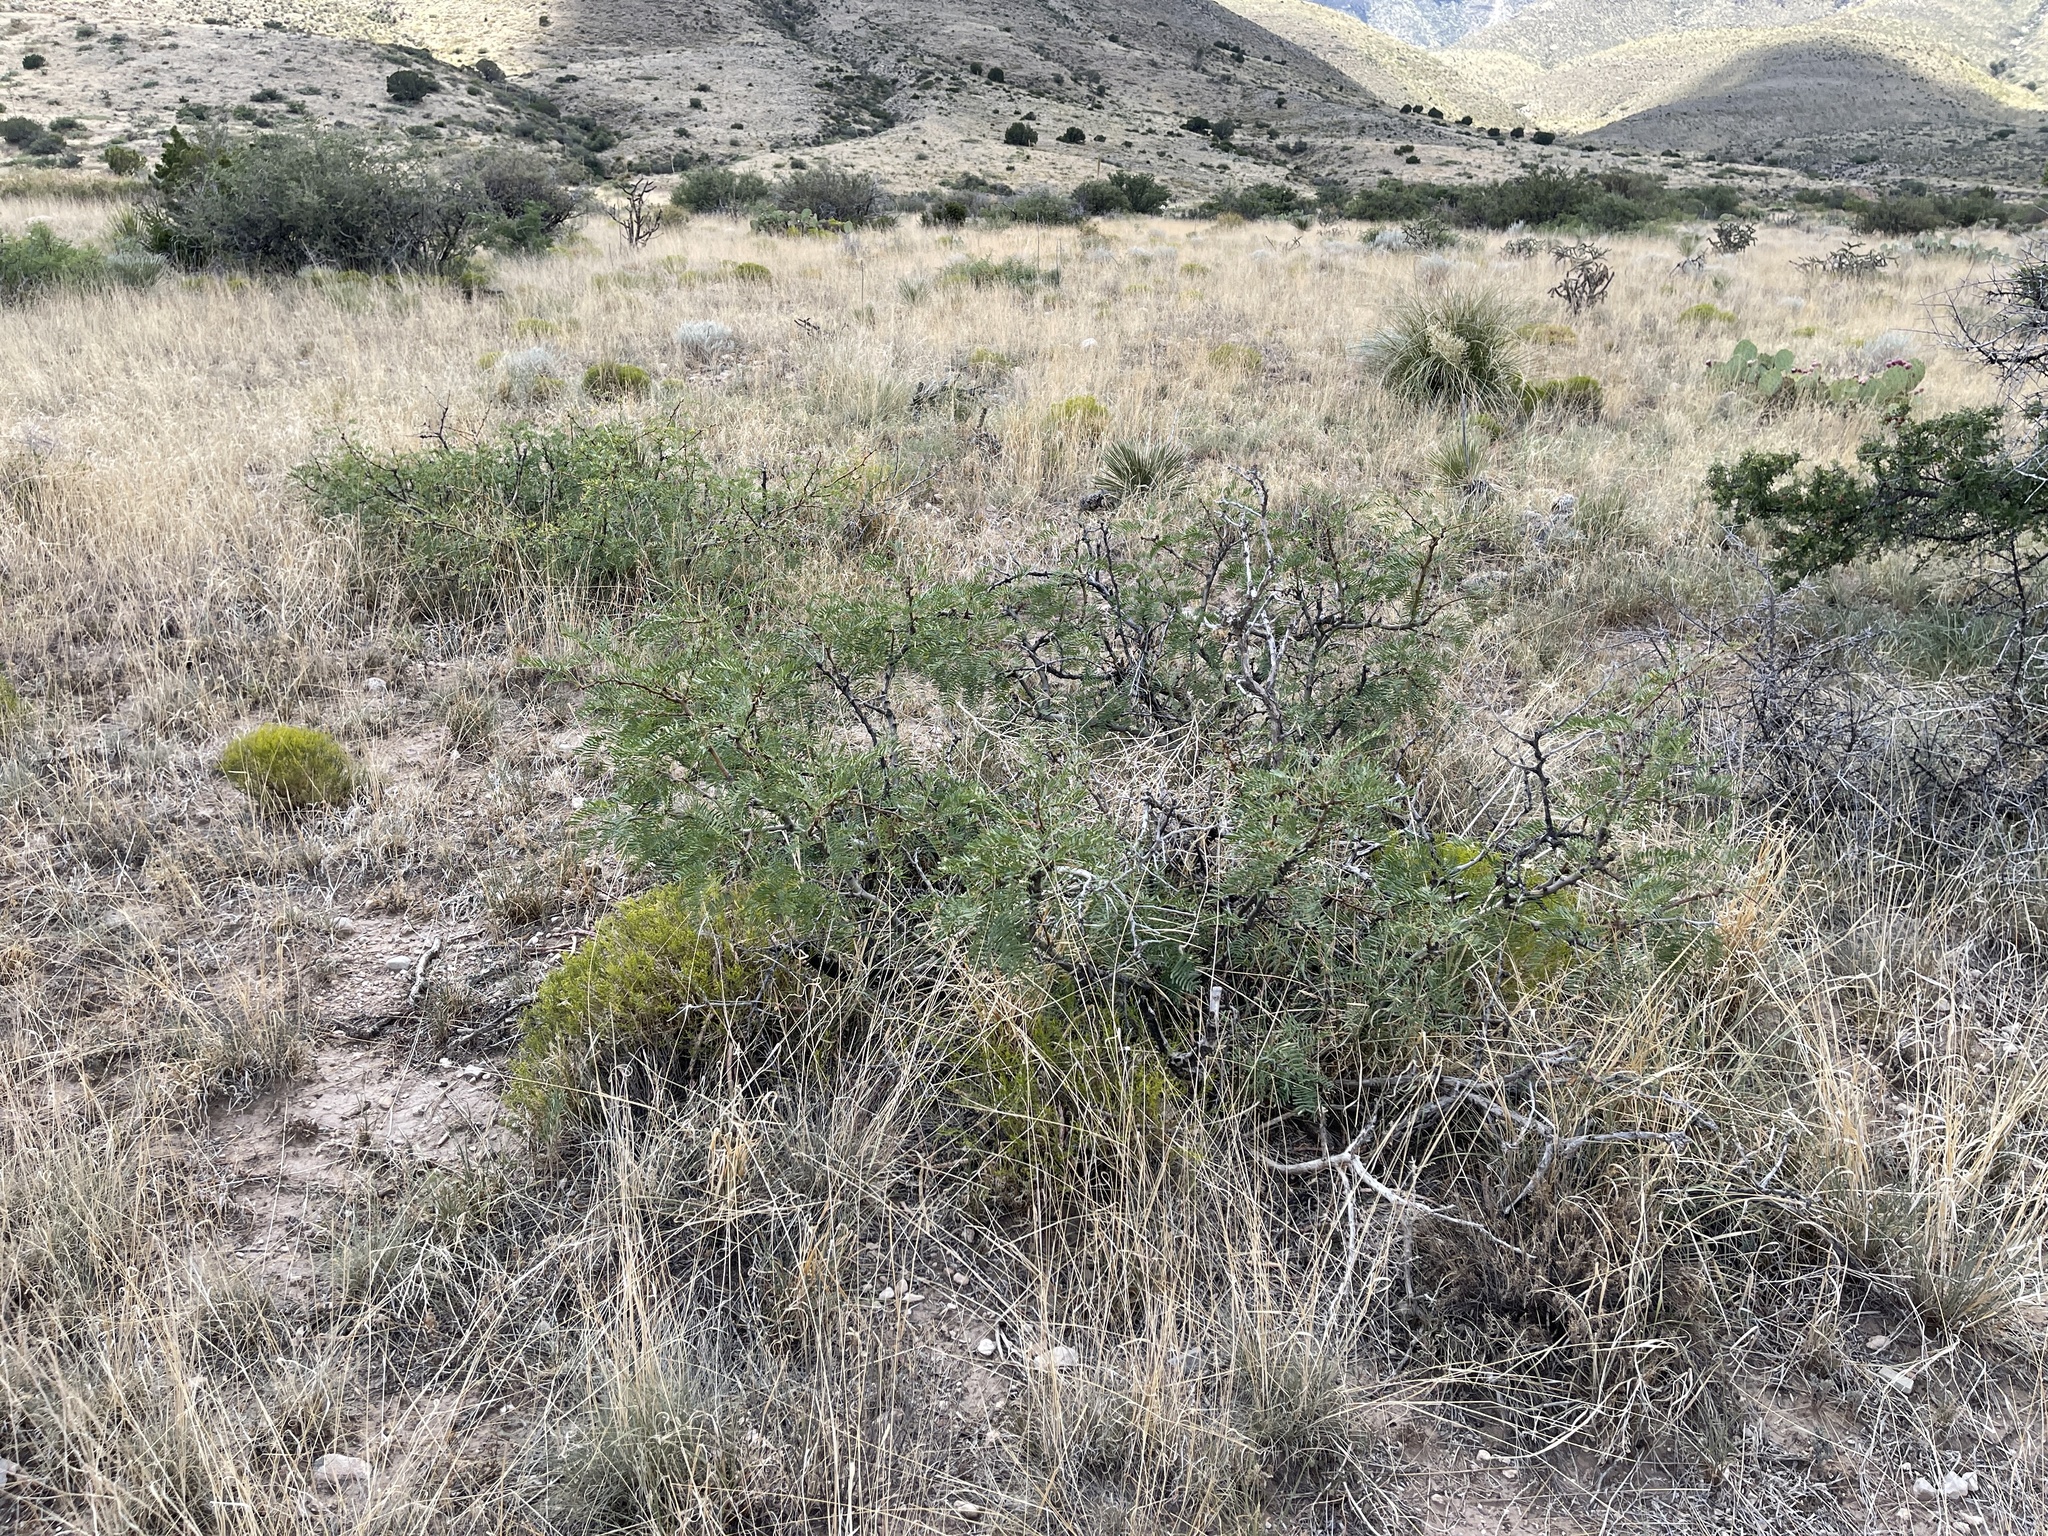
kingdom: Plantae
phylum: Tracheophyta
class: Magnoliopsida
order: Fabales
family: Fabaceae
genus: Prosopis
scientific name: Prosopis glandulosa
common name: Honey mesquite
